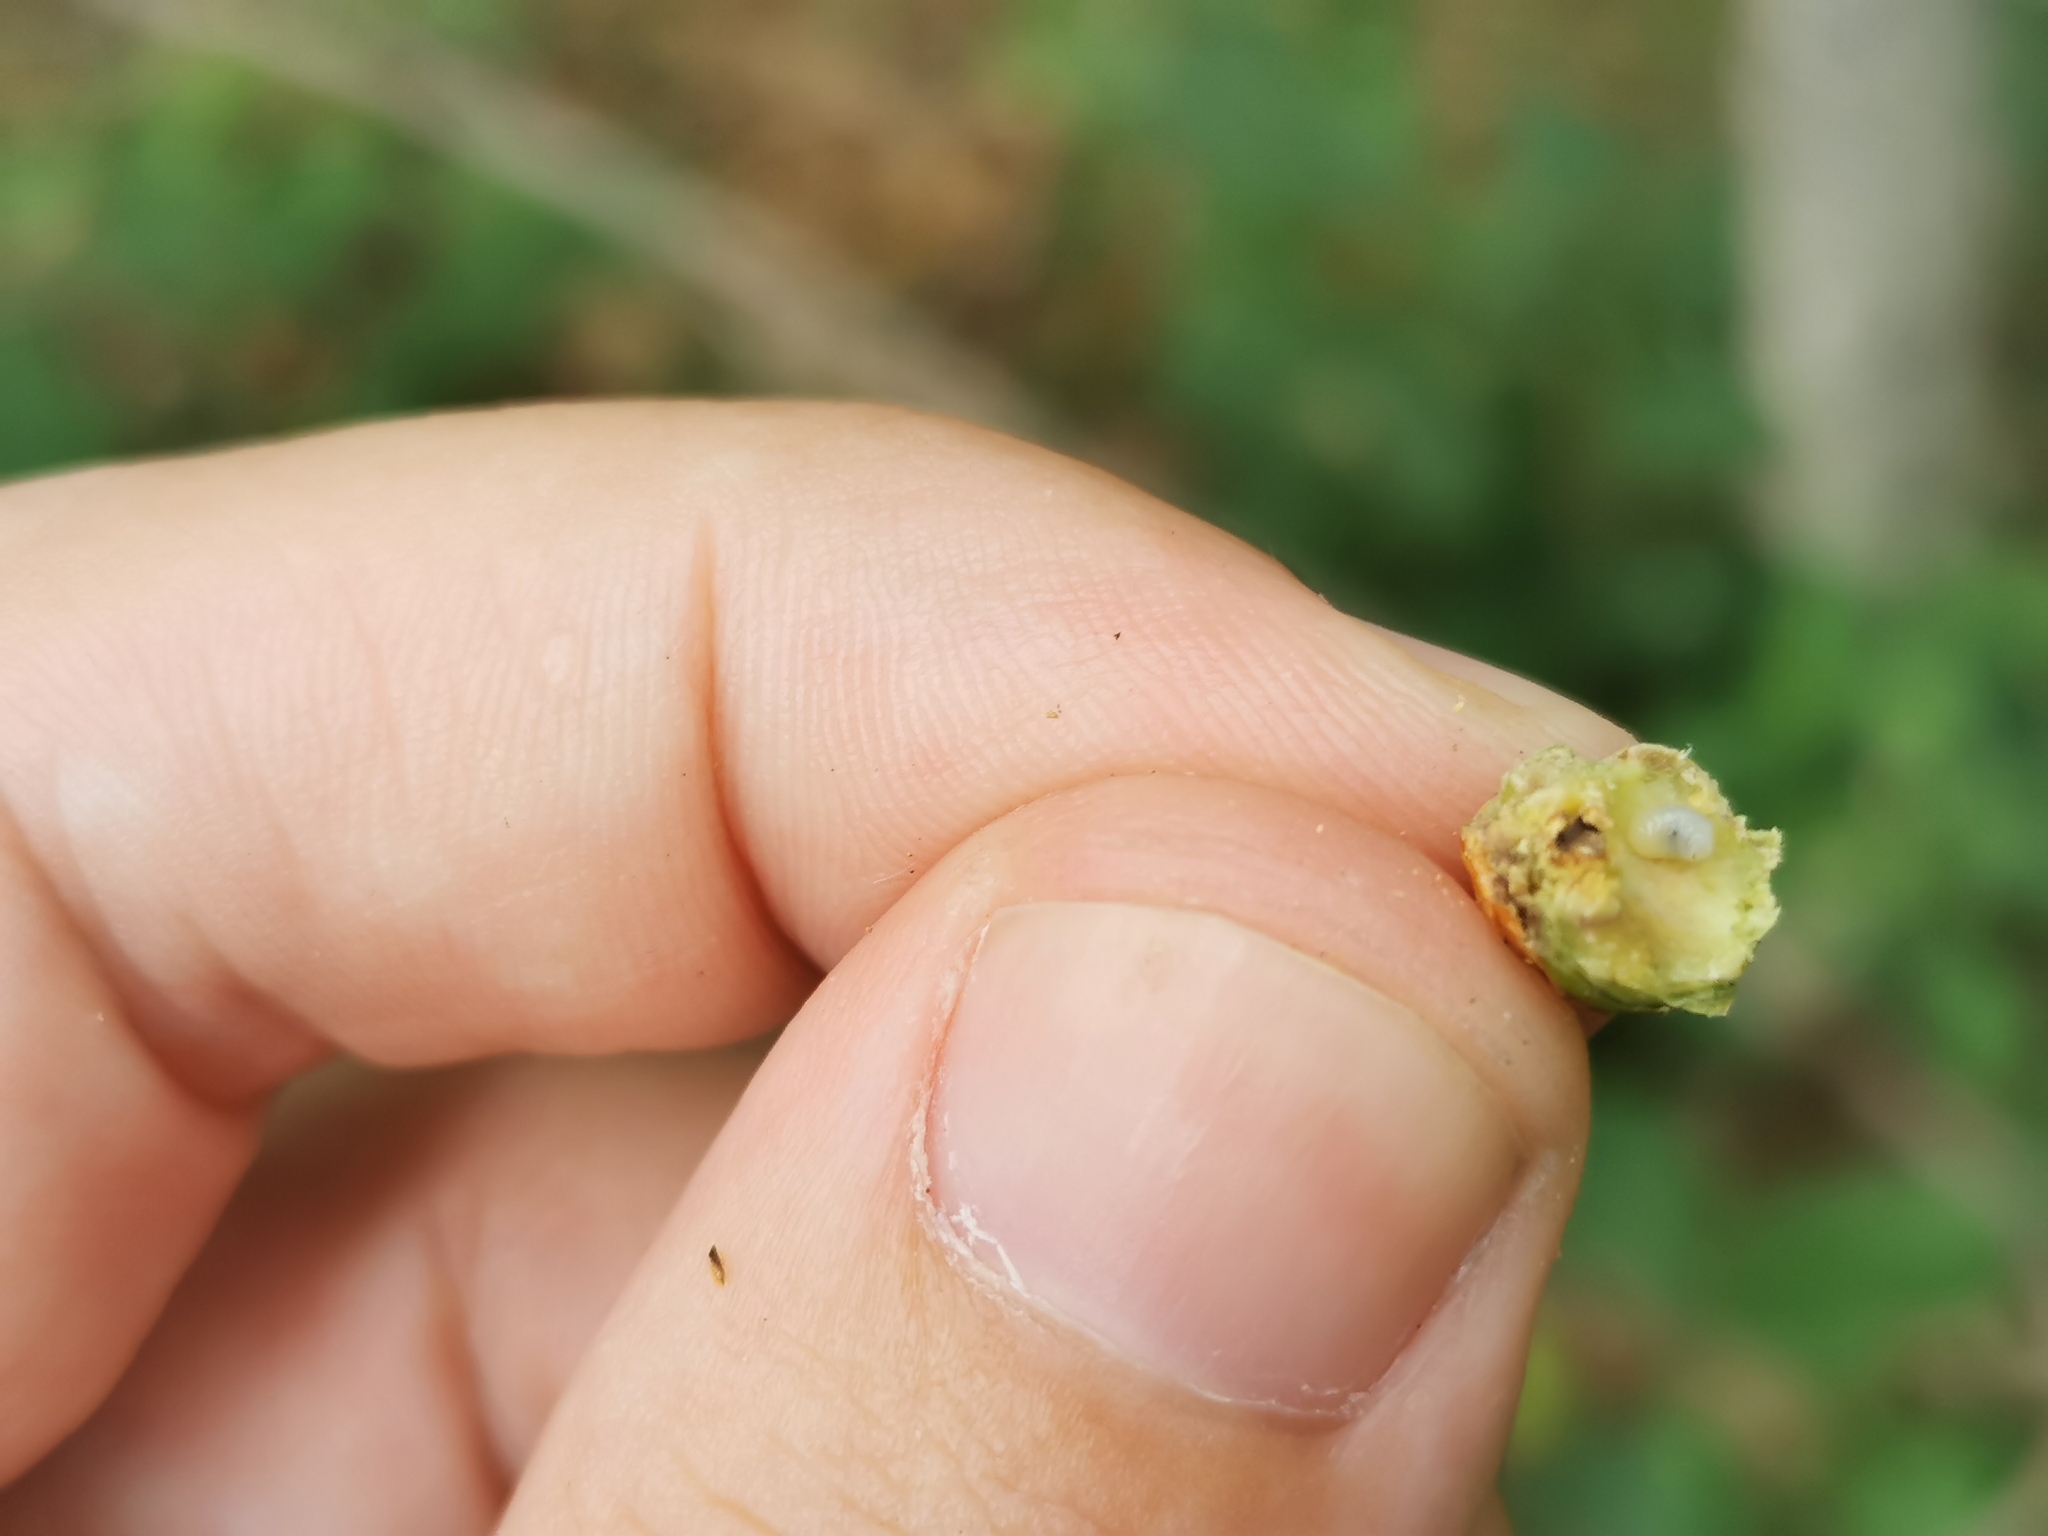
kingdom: Animalia
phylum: Arthropoda
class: Insecta
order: Hymenoptera
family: Cynipidae
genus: Callirhytis
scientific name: Callirhytis clavula
